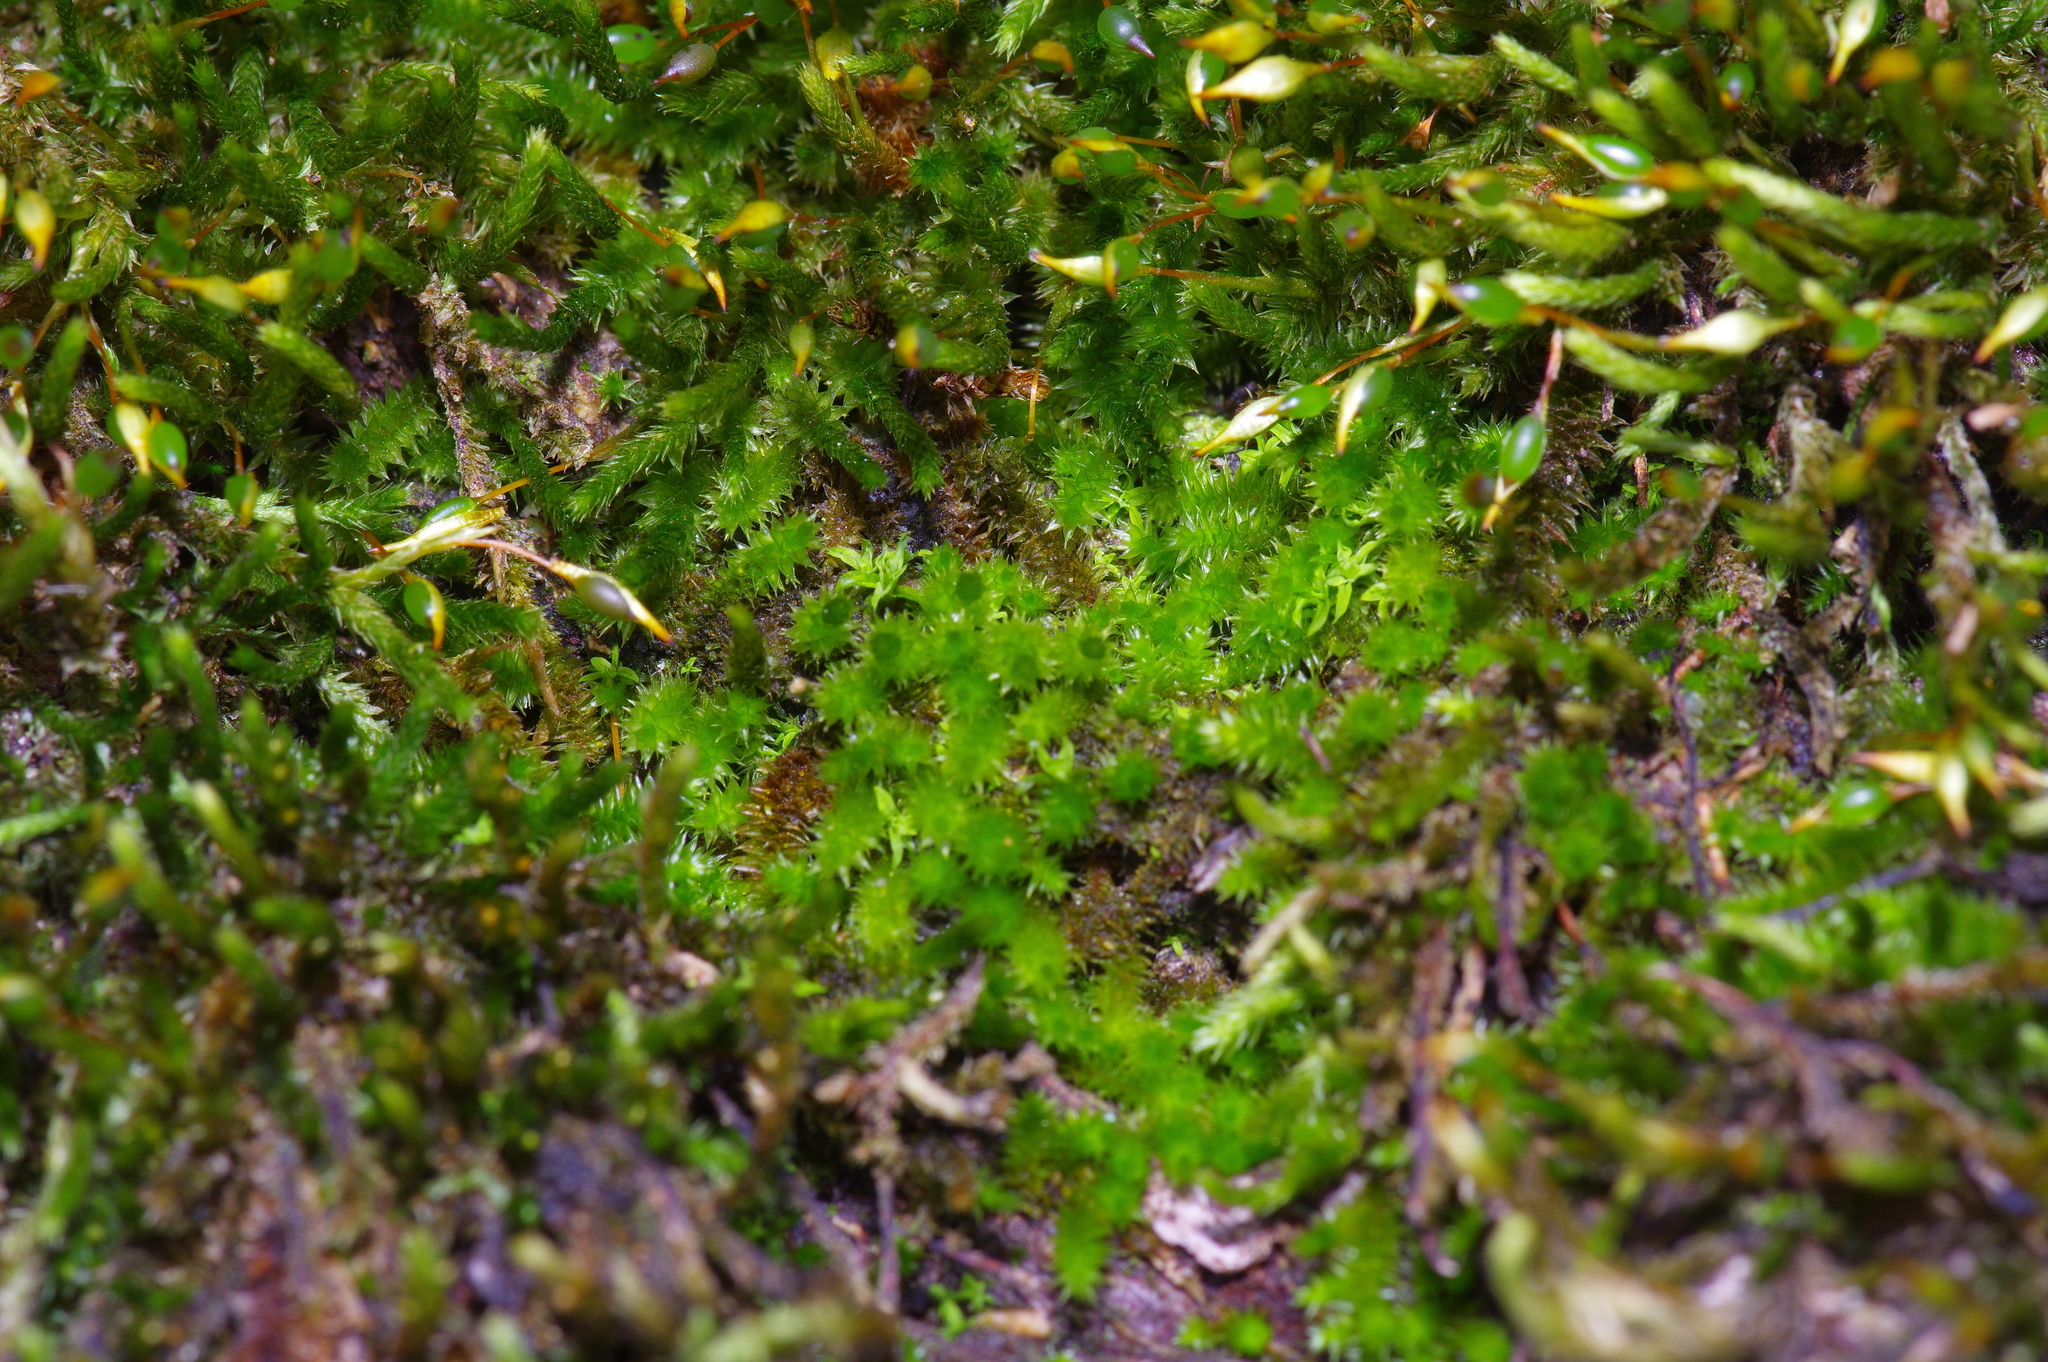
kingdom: Plantae
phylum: Bryophyta
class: Bryopsida
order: Hypnales
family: Leucodontaceae
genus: Leucodon
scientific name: Leucodon julaceus
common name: Smooth hook moss
